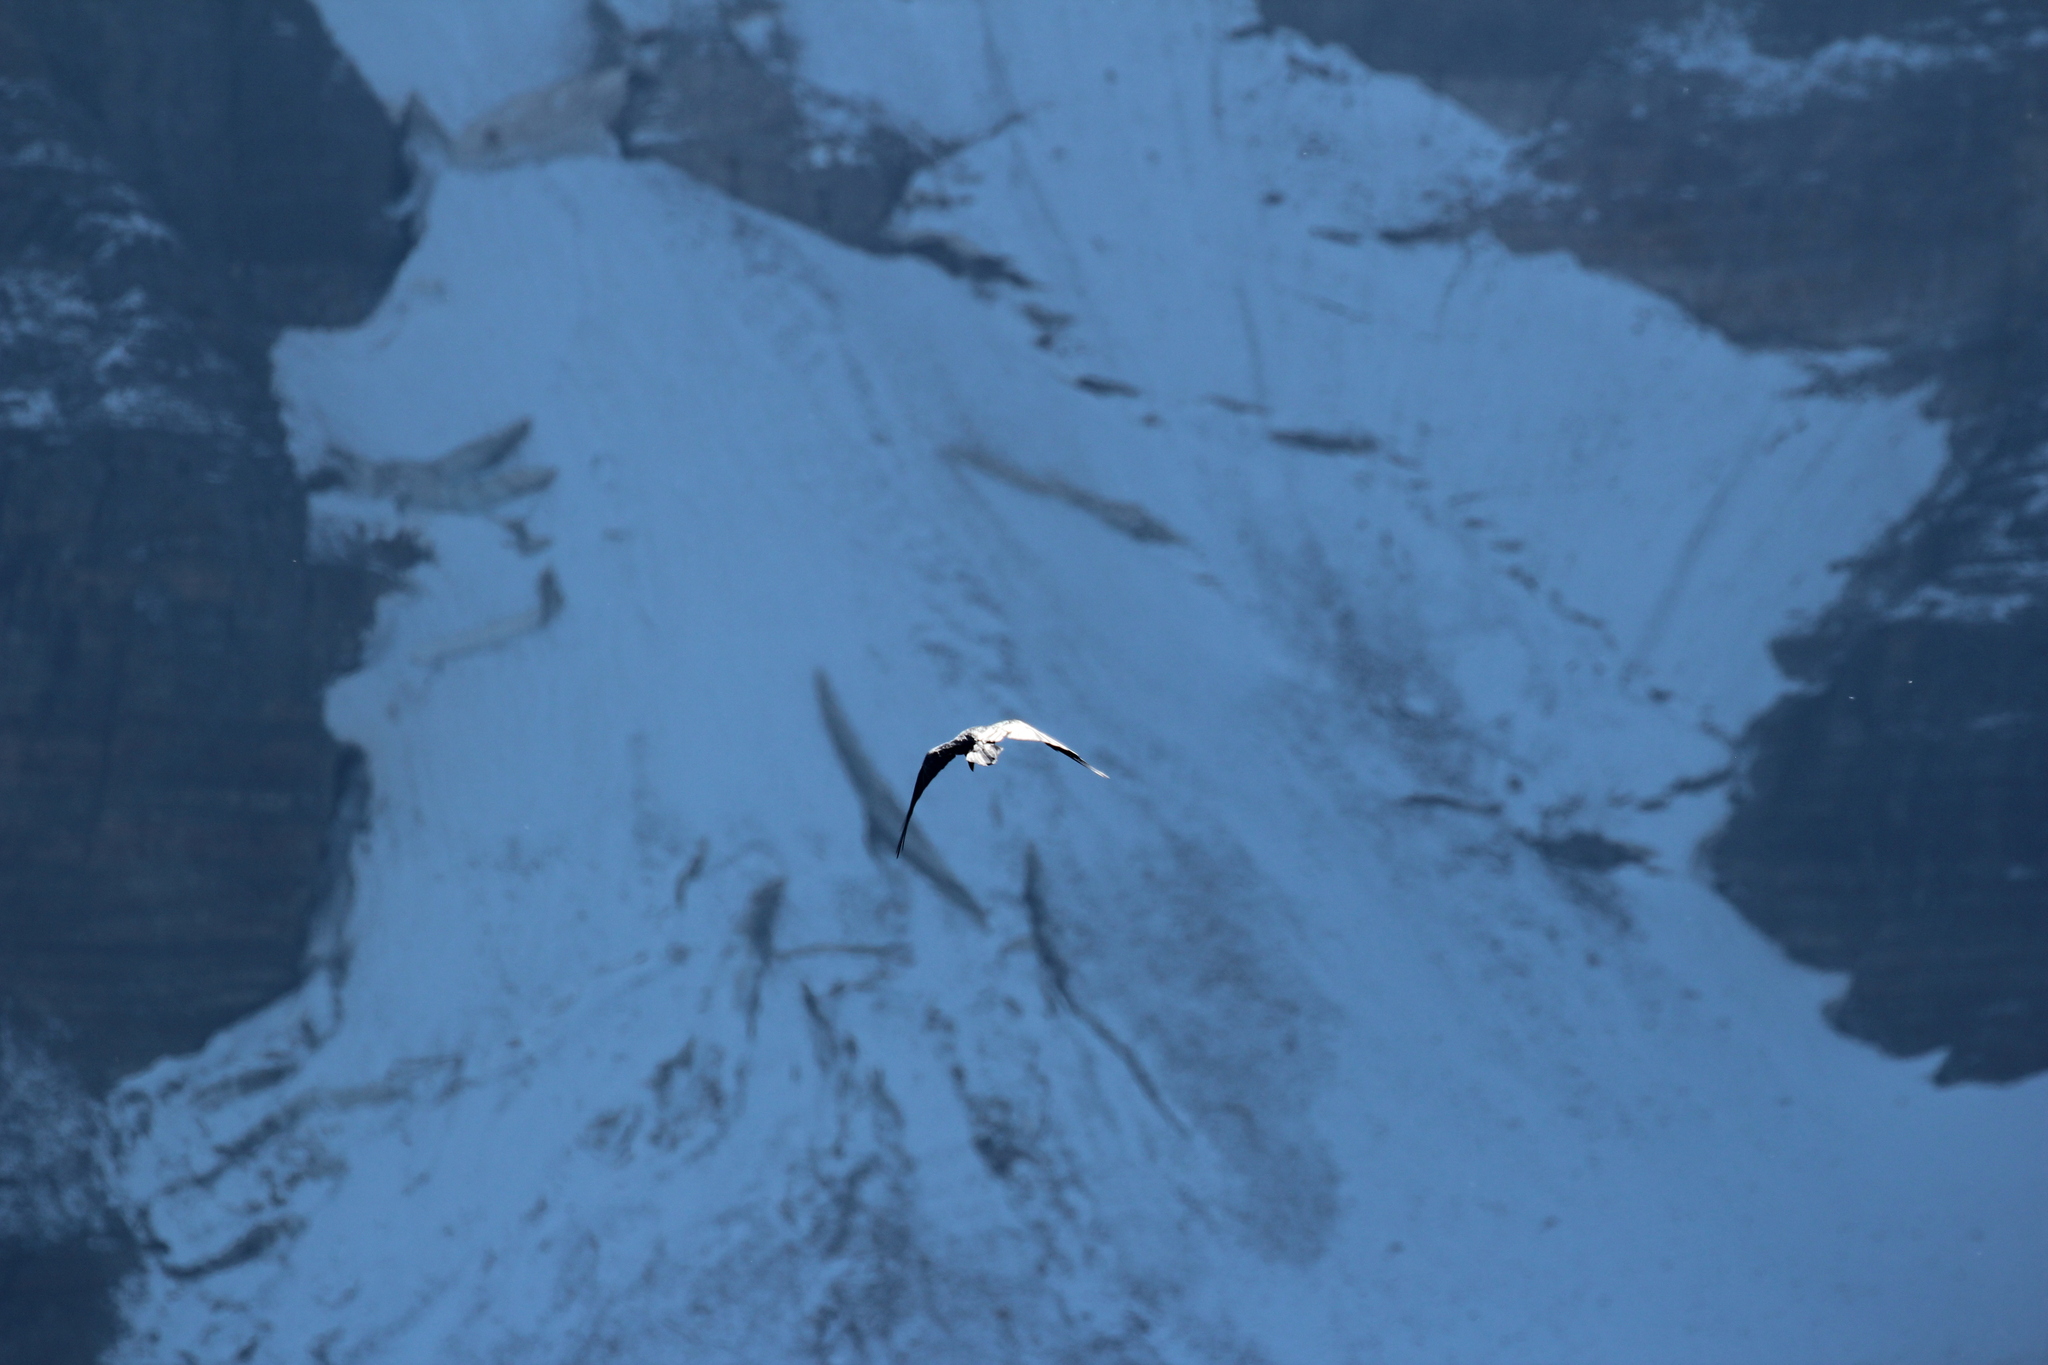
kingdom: Animalia
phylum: Chordata
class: Aves
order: Passeriformes
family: Corvidae
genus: Corvus
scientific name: Corvus corax
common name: Common raven
